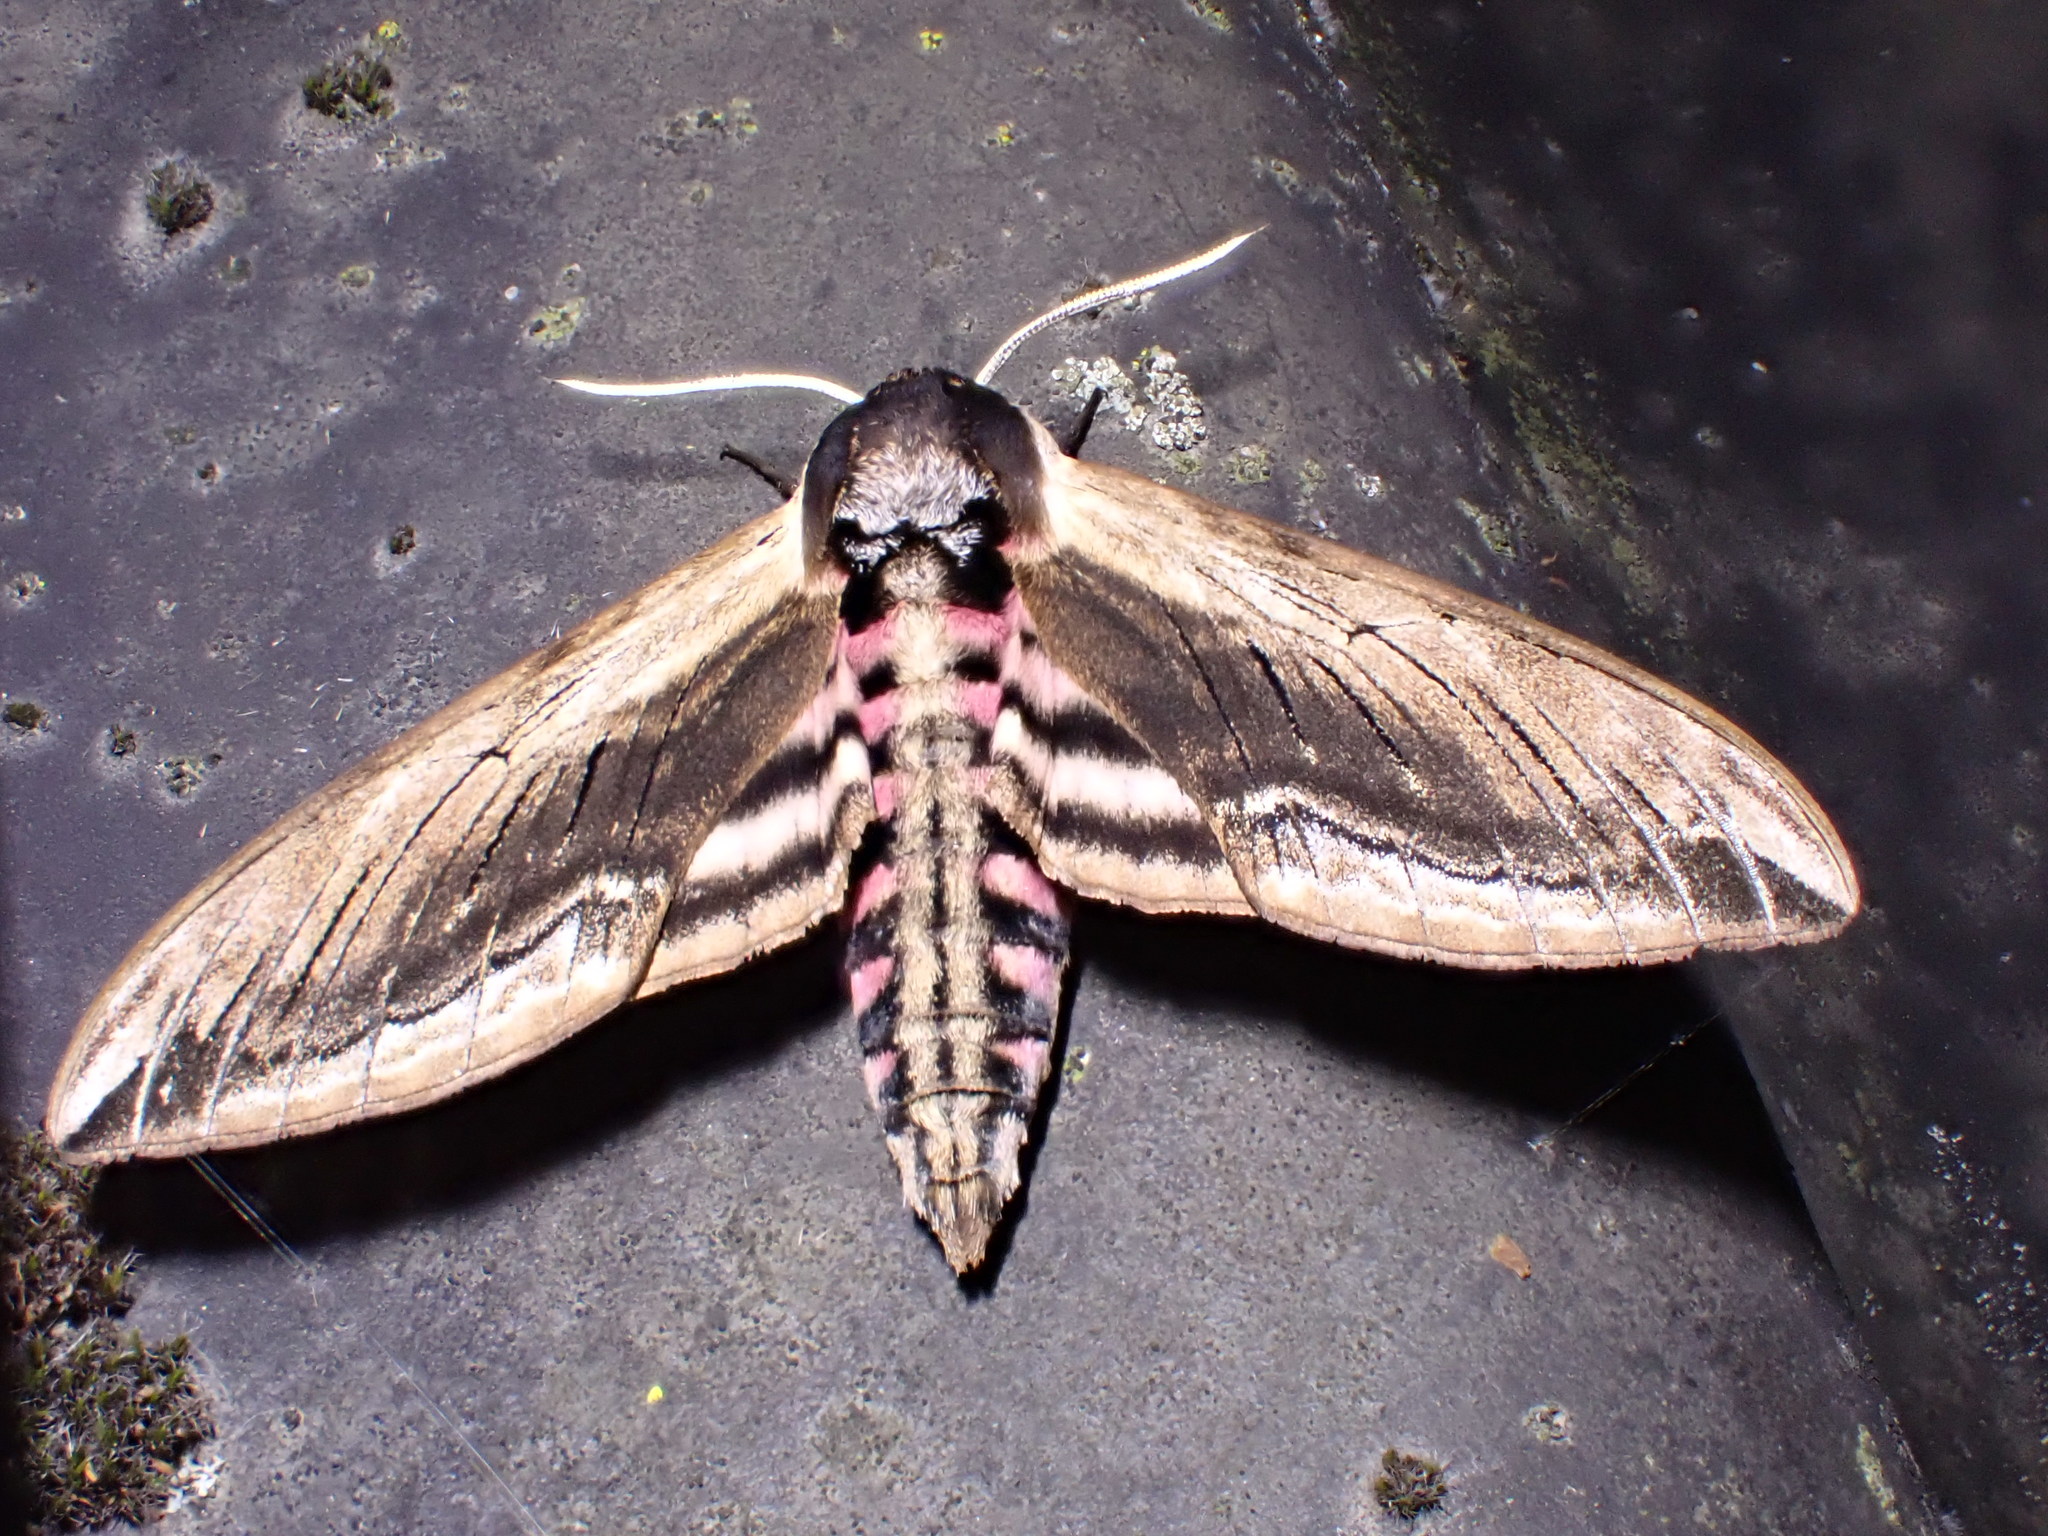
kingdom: Animalia
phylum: Arthropoda
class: Insecta
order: Lepidoptera
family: Sphingidae
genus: Sphinx
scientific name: Sphinx ligustri
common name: Privet hawk-moth
